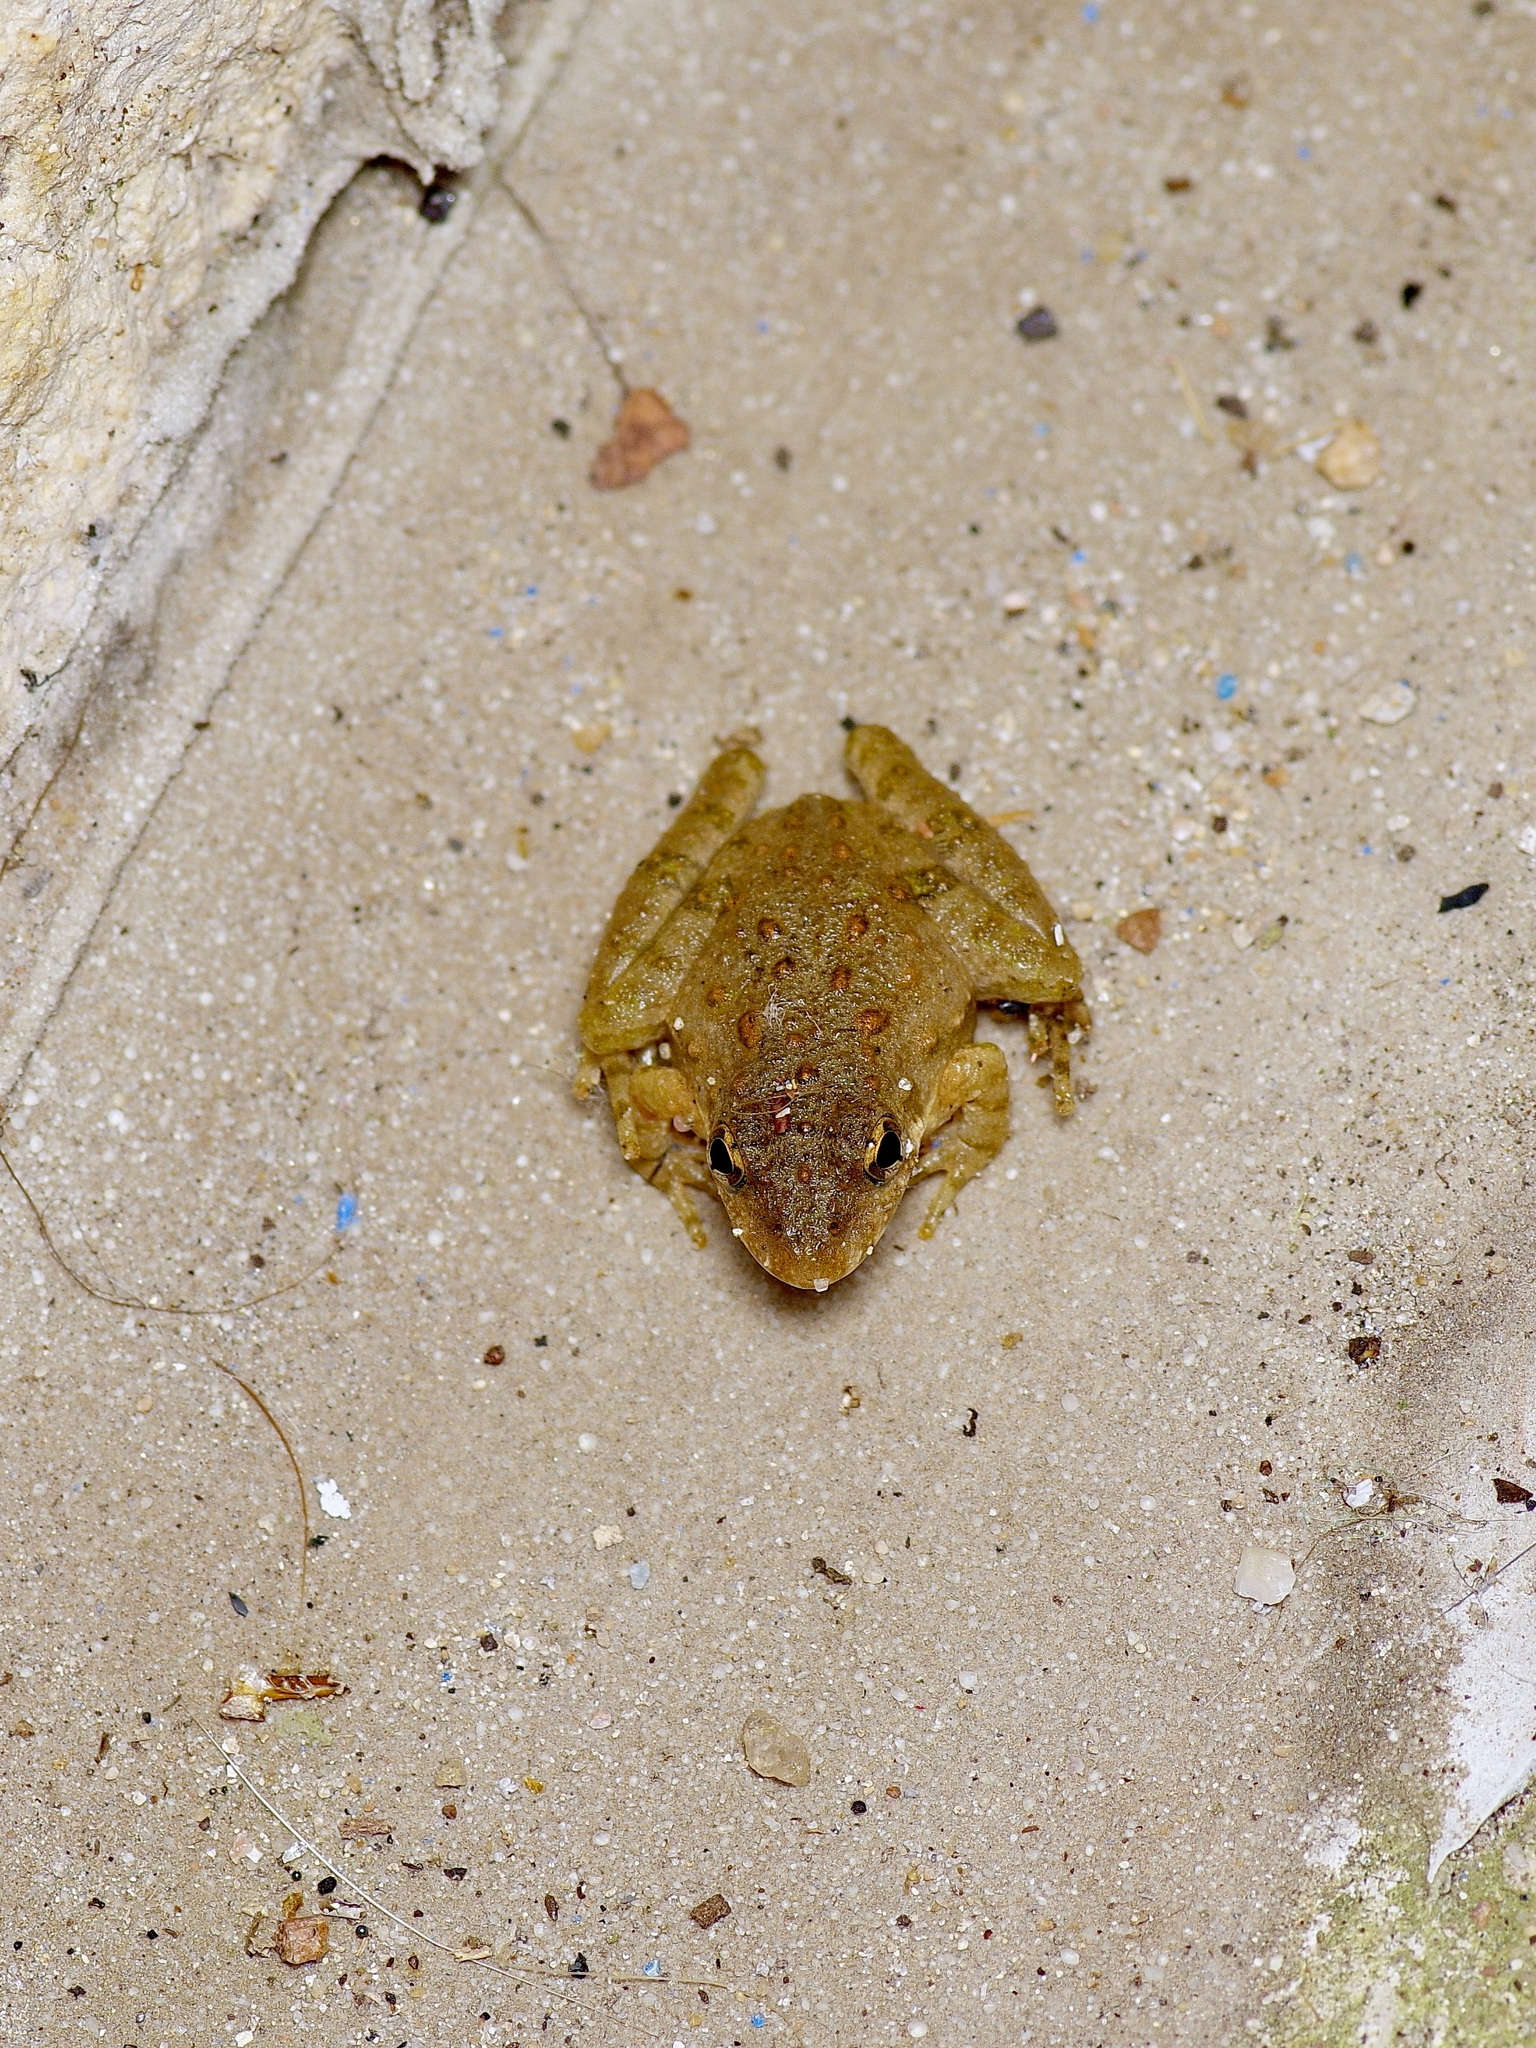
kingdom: Animalia
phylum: Chordata
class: Amphibia
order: Anura
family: Hylidae
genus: Acris
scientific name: Acris blanchardi
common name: Blanchard's cricket frog
